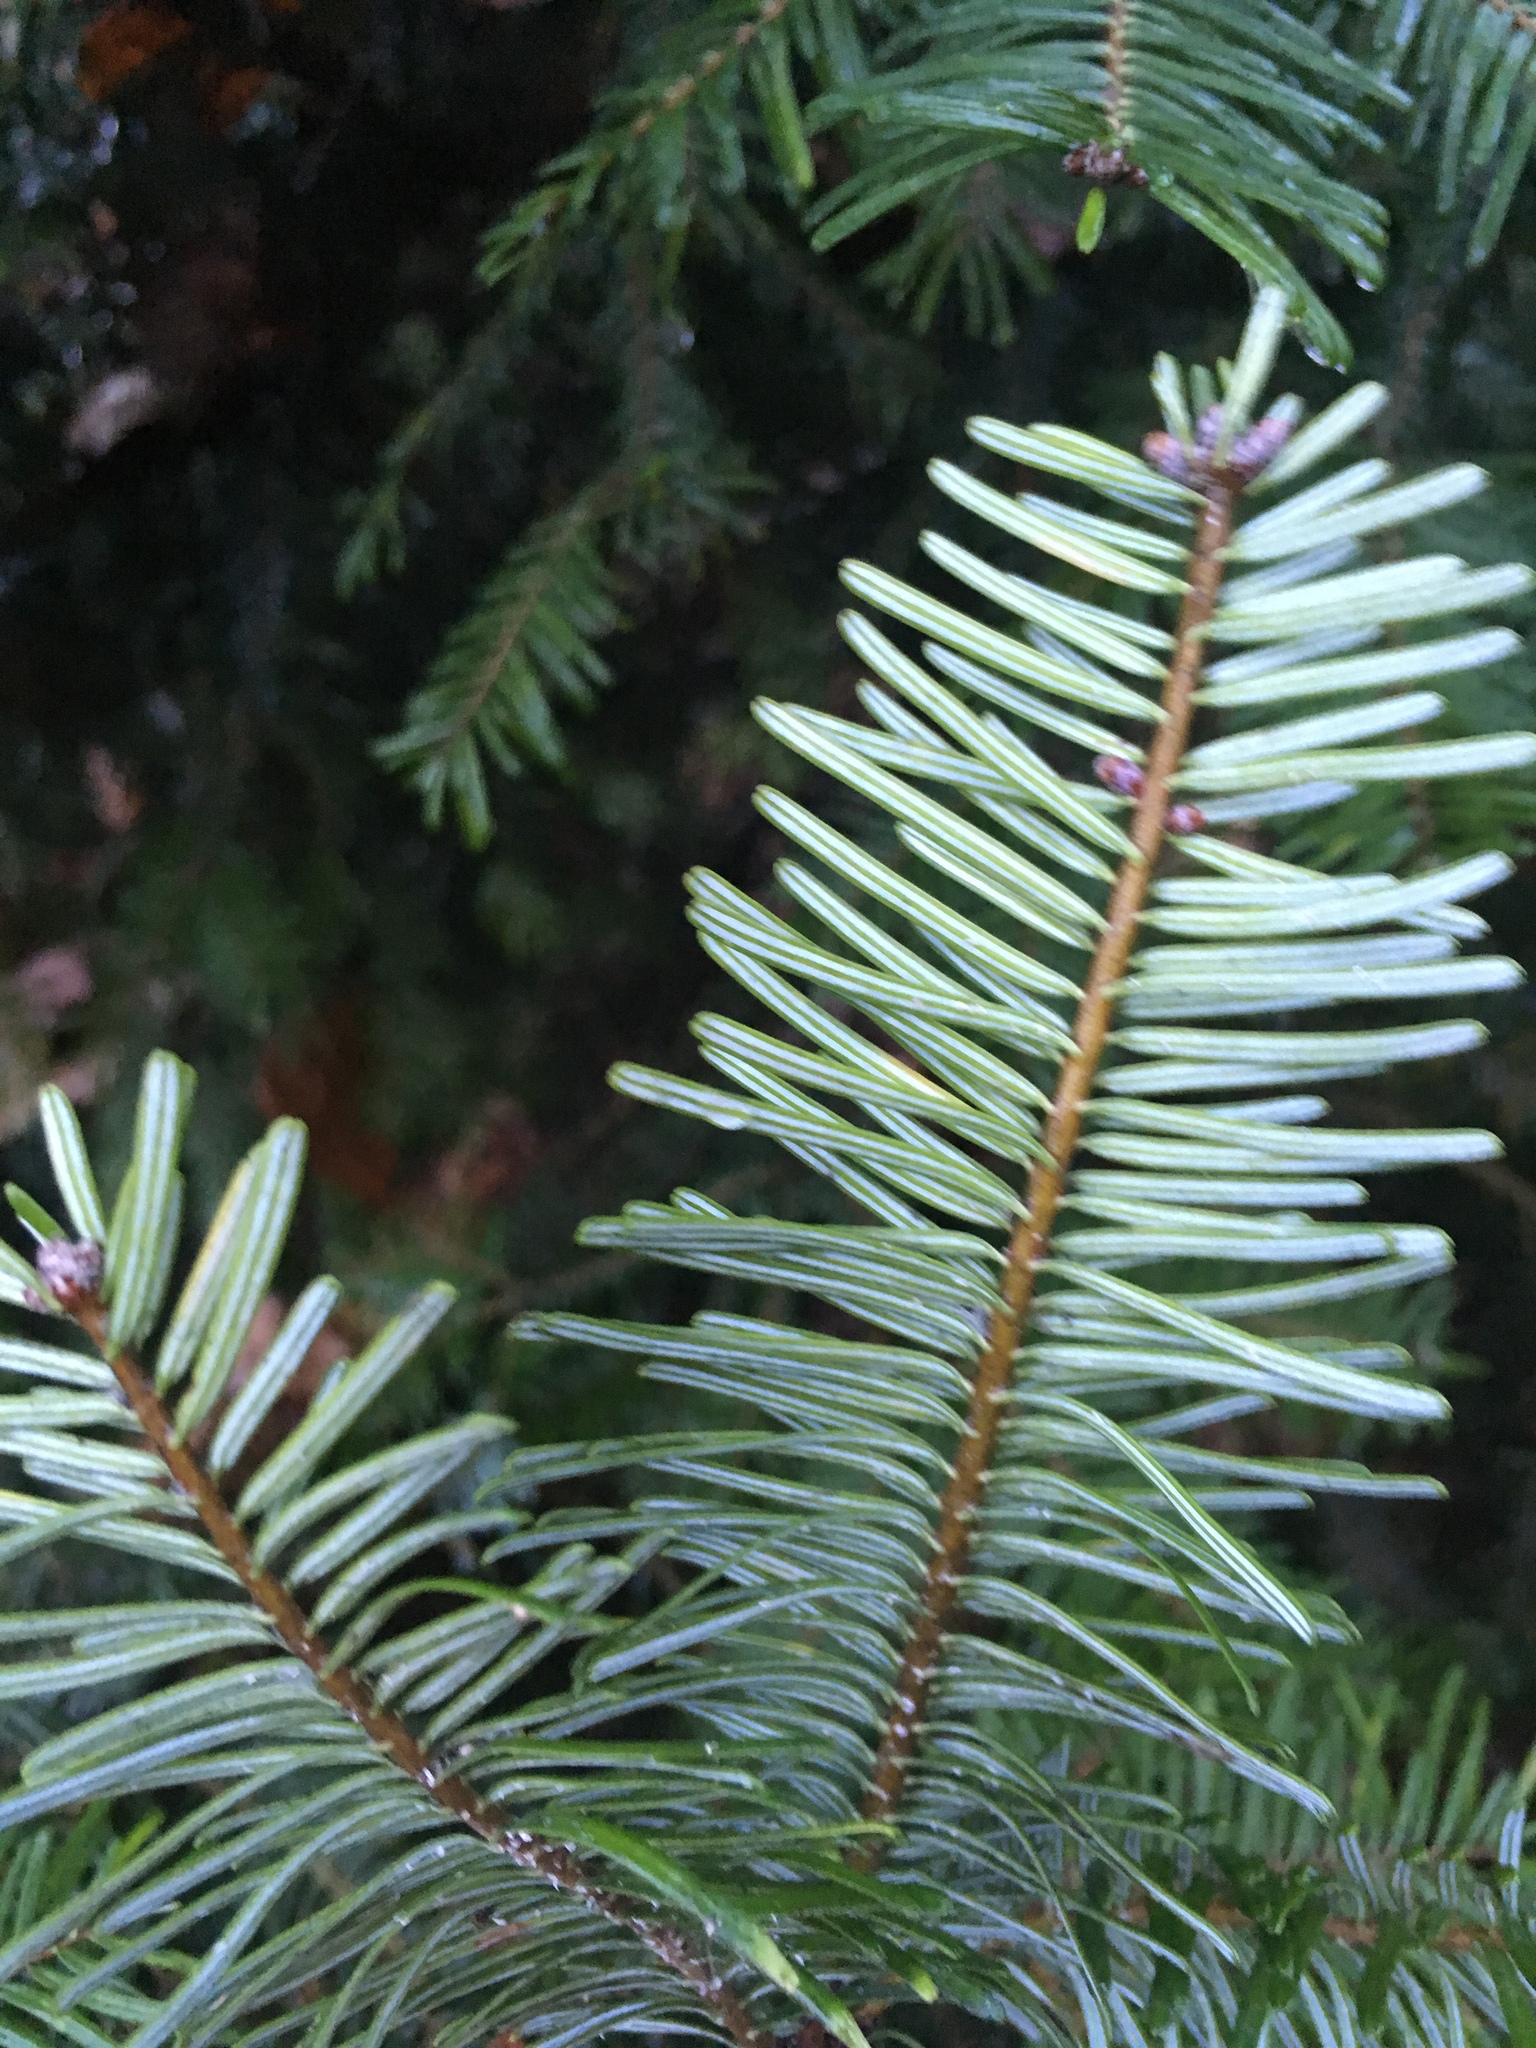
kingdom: Plantae
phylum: Tracheophyta
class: Pinopsida
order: Pinales
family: Pinaceae
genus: Abies
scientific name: Abies grandis
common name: Giant fir
